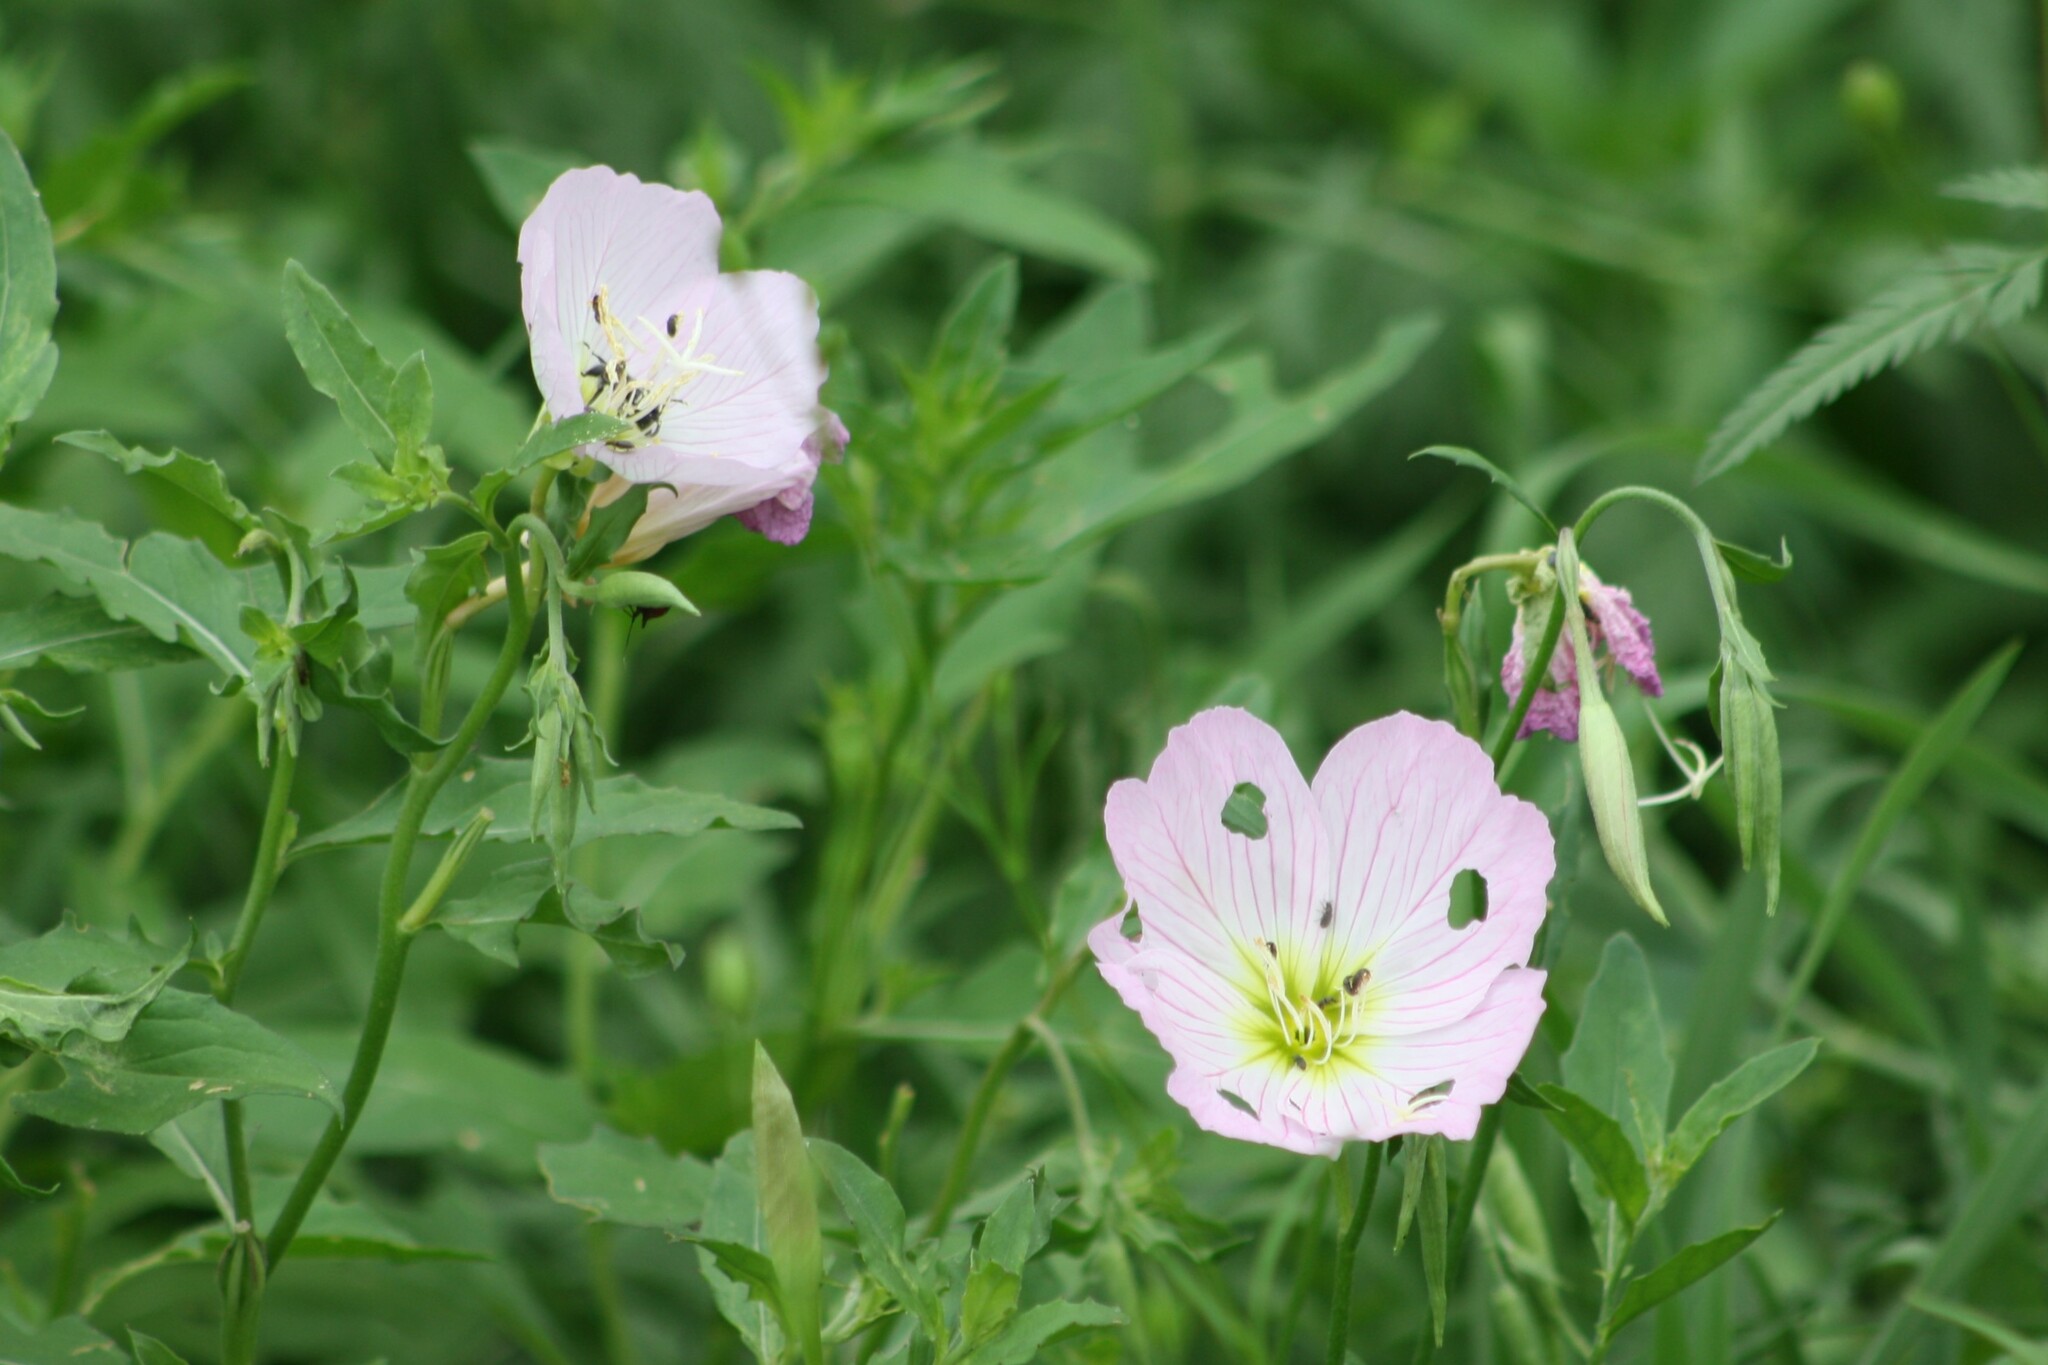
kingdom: Plantae
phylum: Tracheophyta
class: Magnoliopsida
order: Myrtales
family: Onagraceae
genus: Oenothera
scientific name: Oenothera speciosa
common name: White evening-primrose
